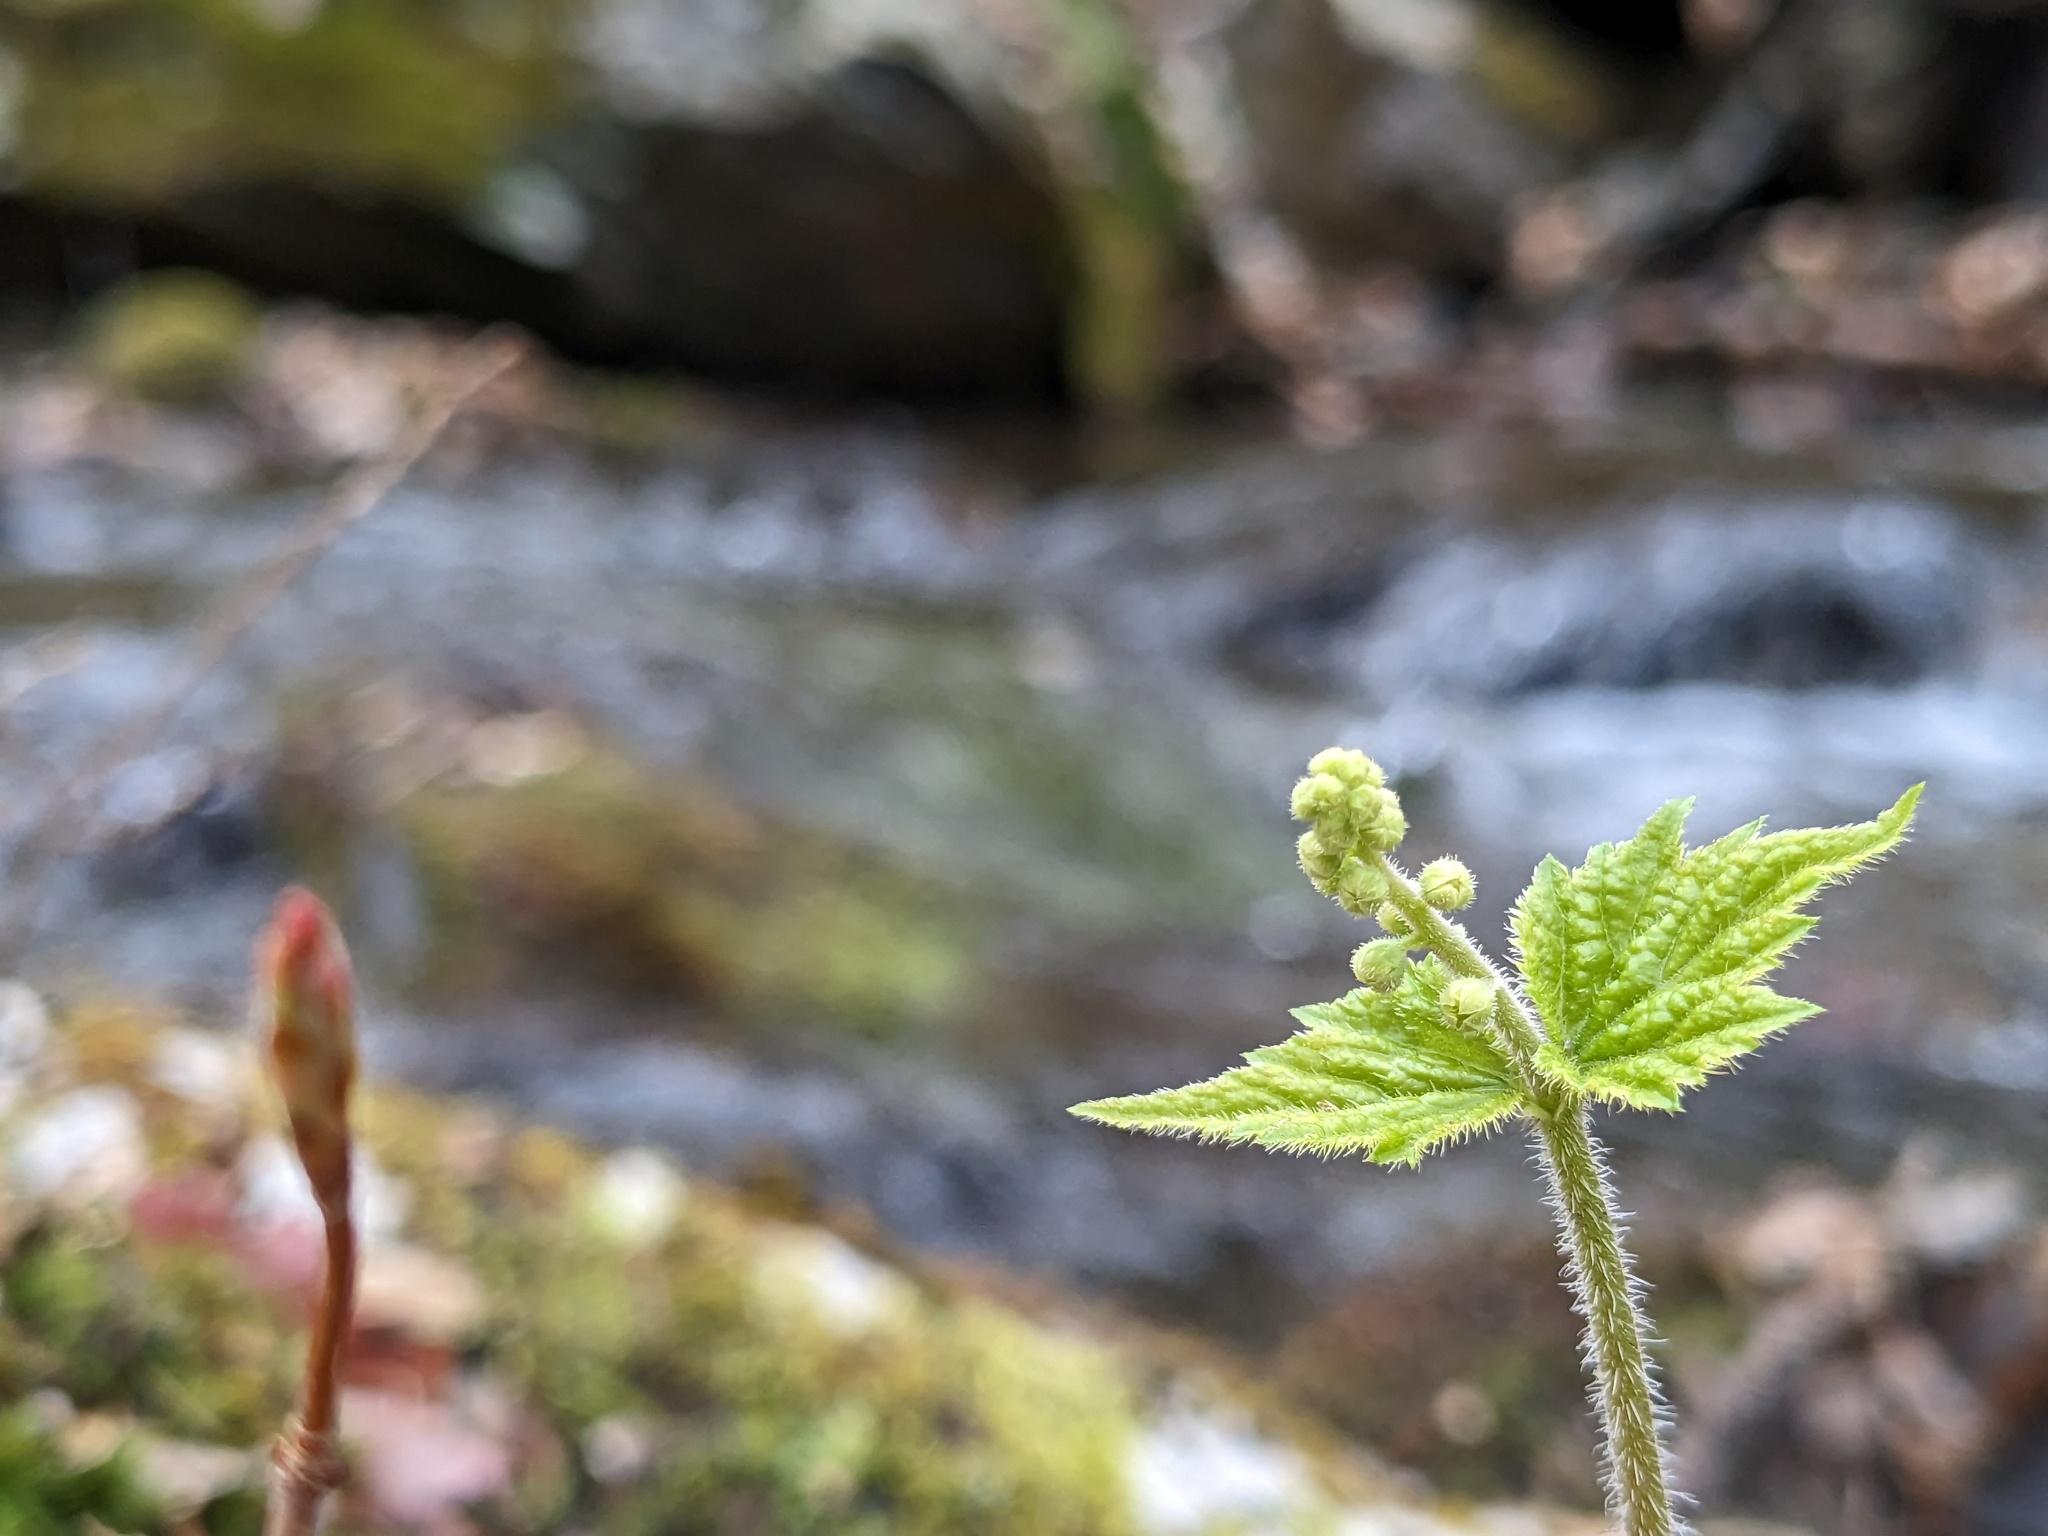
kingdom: Plantae
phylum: Tracheophyta
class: Magnoliopsida
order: Saxifragales
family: Saxifragaceae
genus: Mitella
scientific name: Mitella diphylla
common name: Coolwort
